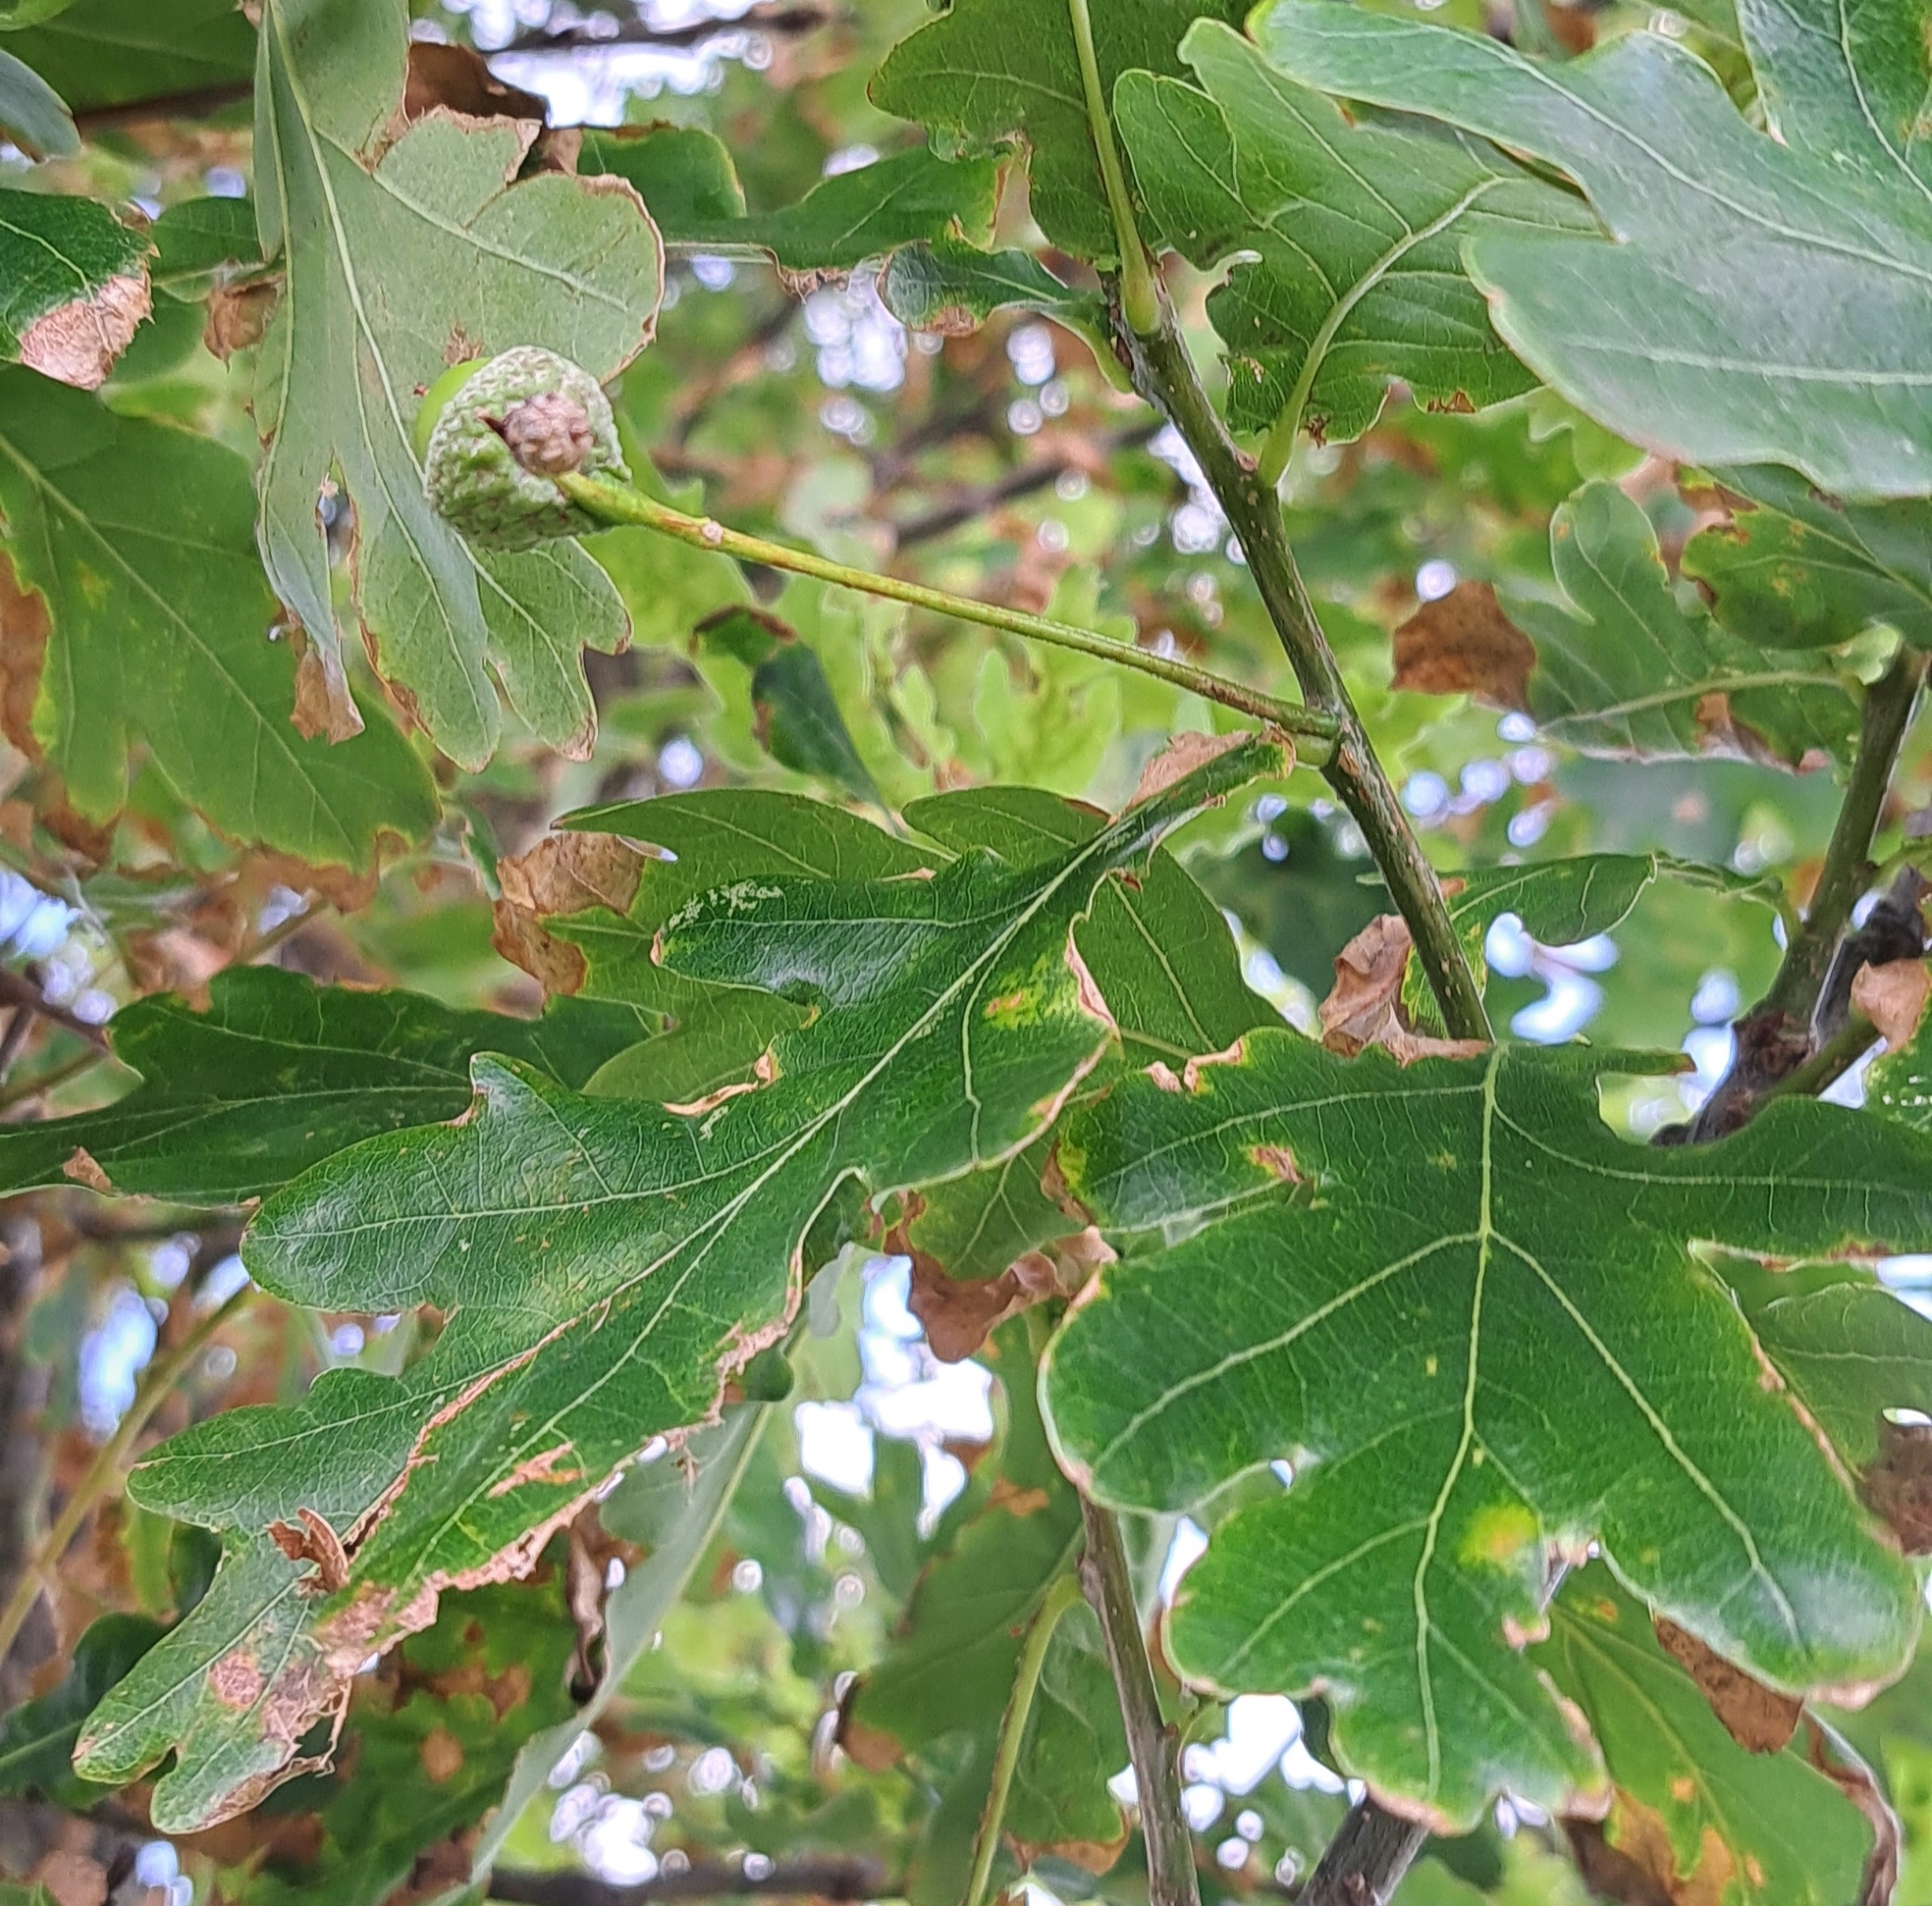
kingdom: Plantae
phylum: Tracheophyta
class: Magnoliopsida
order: Fagales
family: Fagaceae
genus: Quercus
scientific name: Quercus robur
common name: Pedunculate oak
